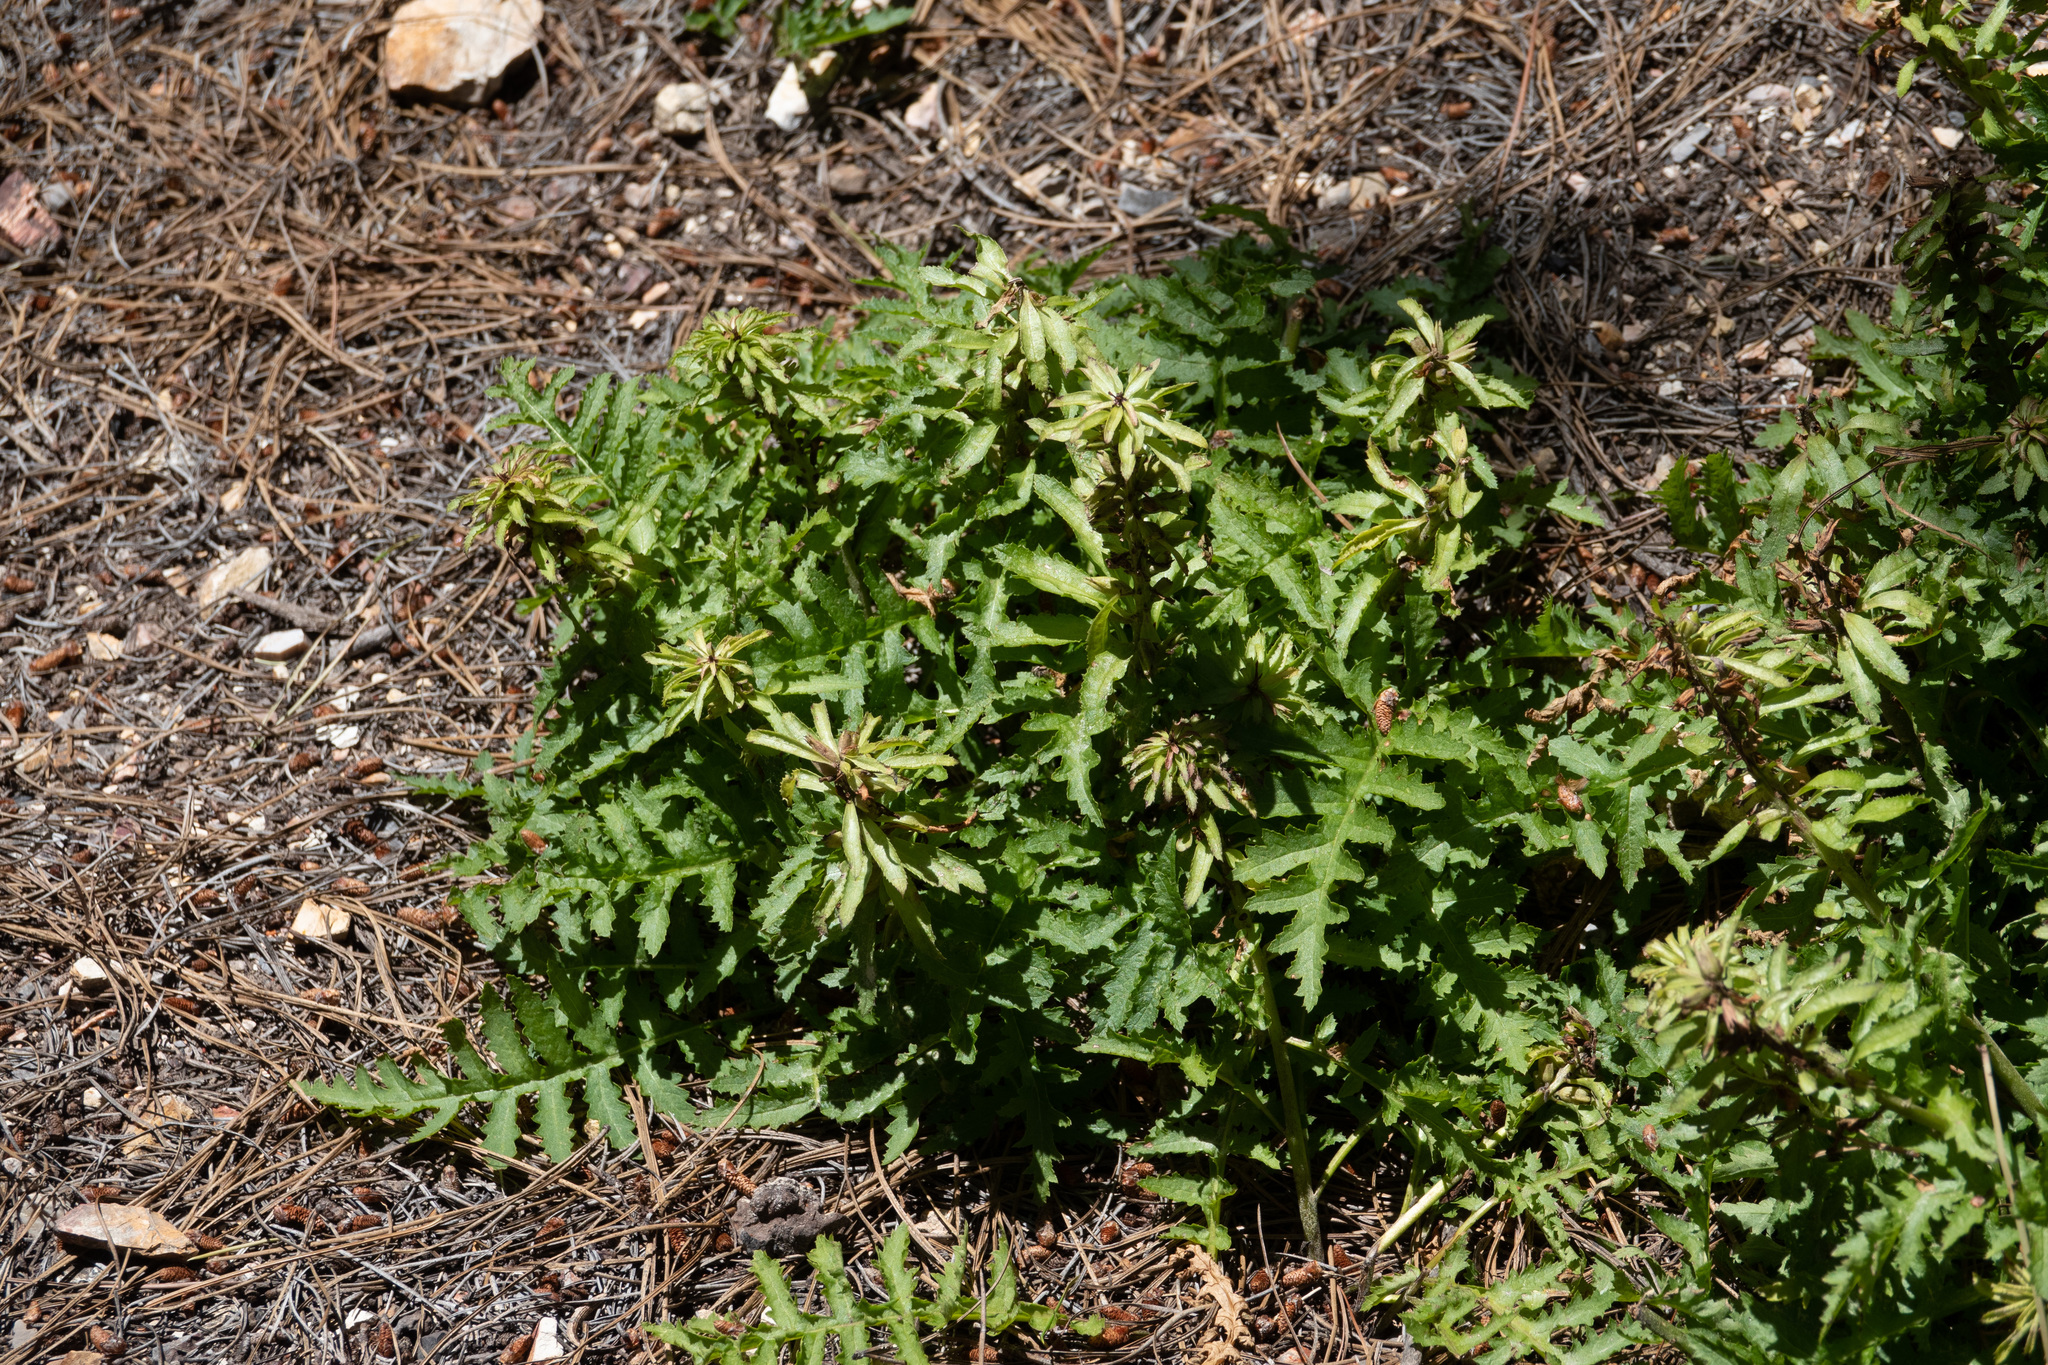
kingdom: Plantae
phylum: Tracheophyta
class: Magnoliopsida
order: Lamiales
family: Orobanchaceae
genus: Pedicularis
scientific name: Pedicularis densiflora
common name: Indian warrior
